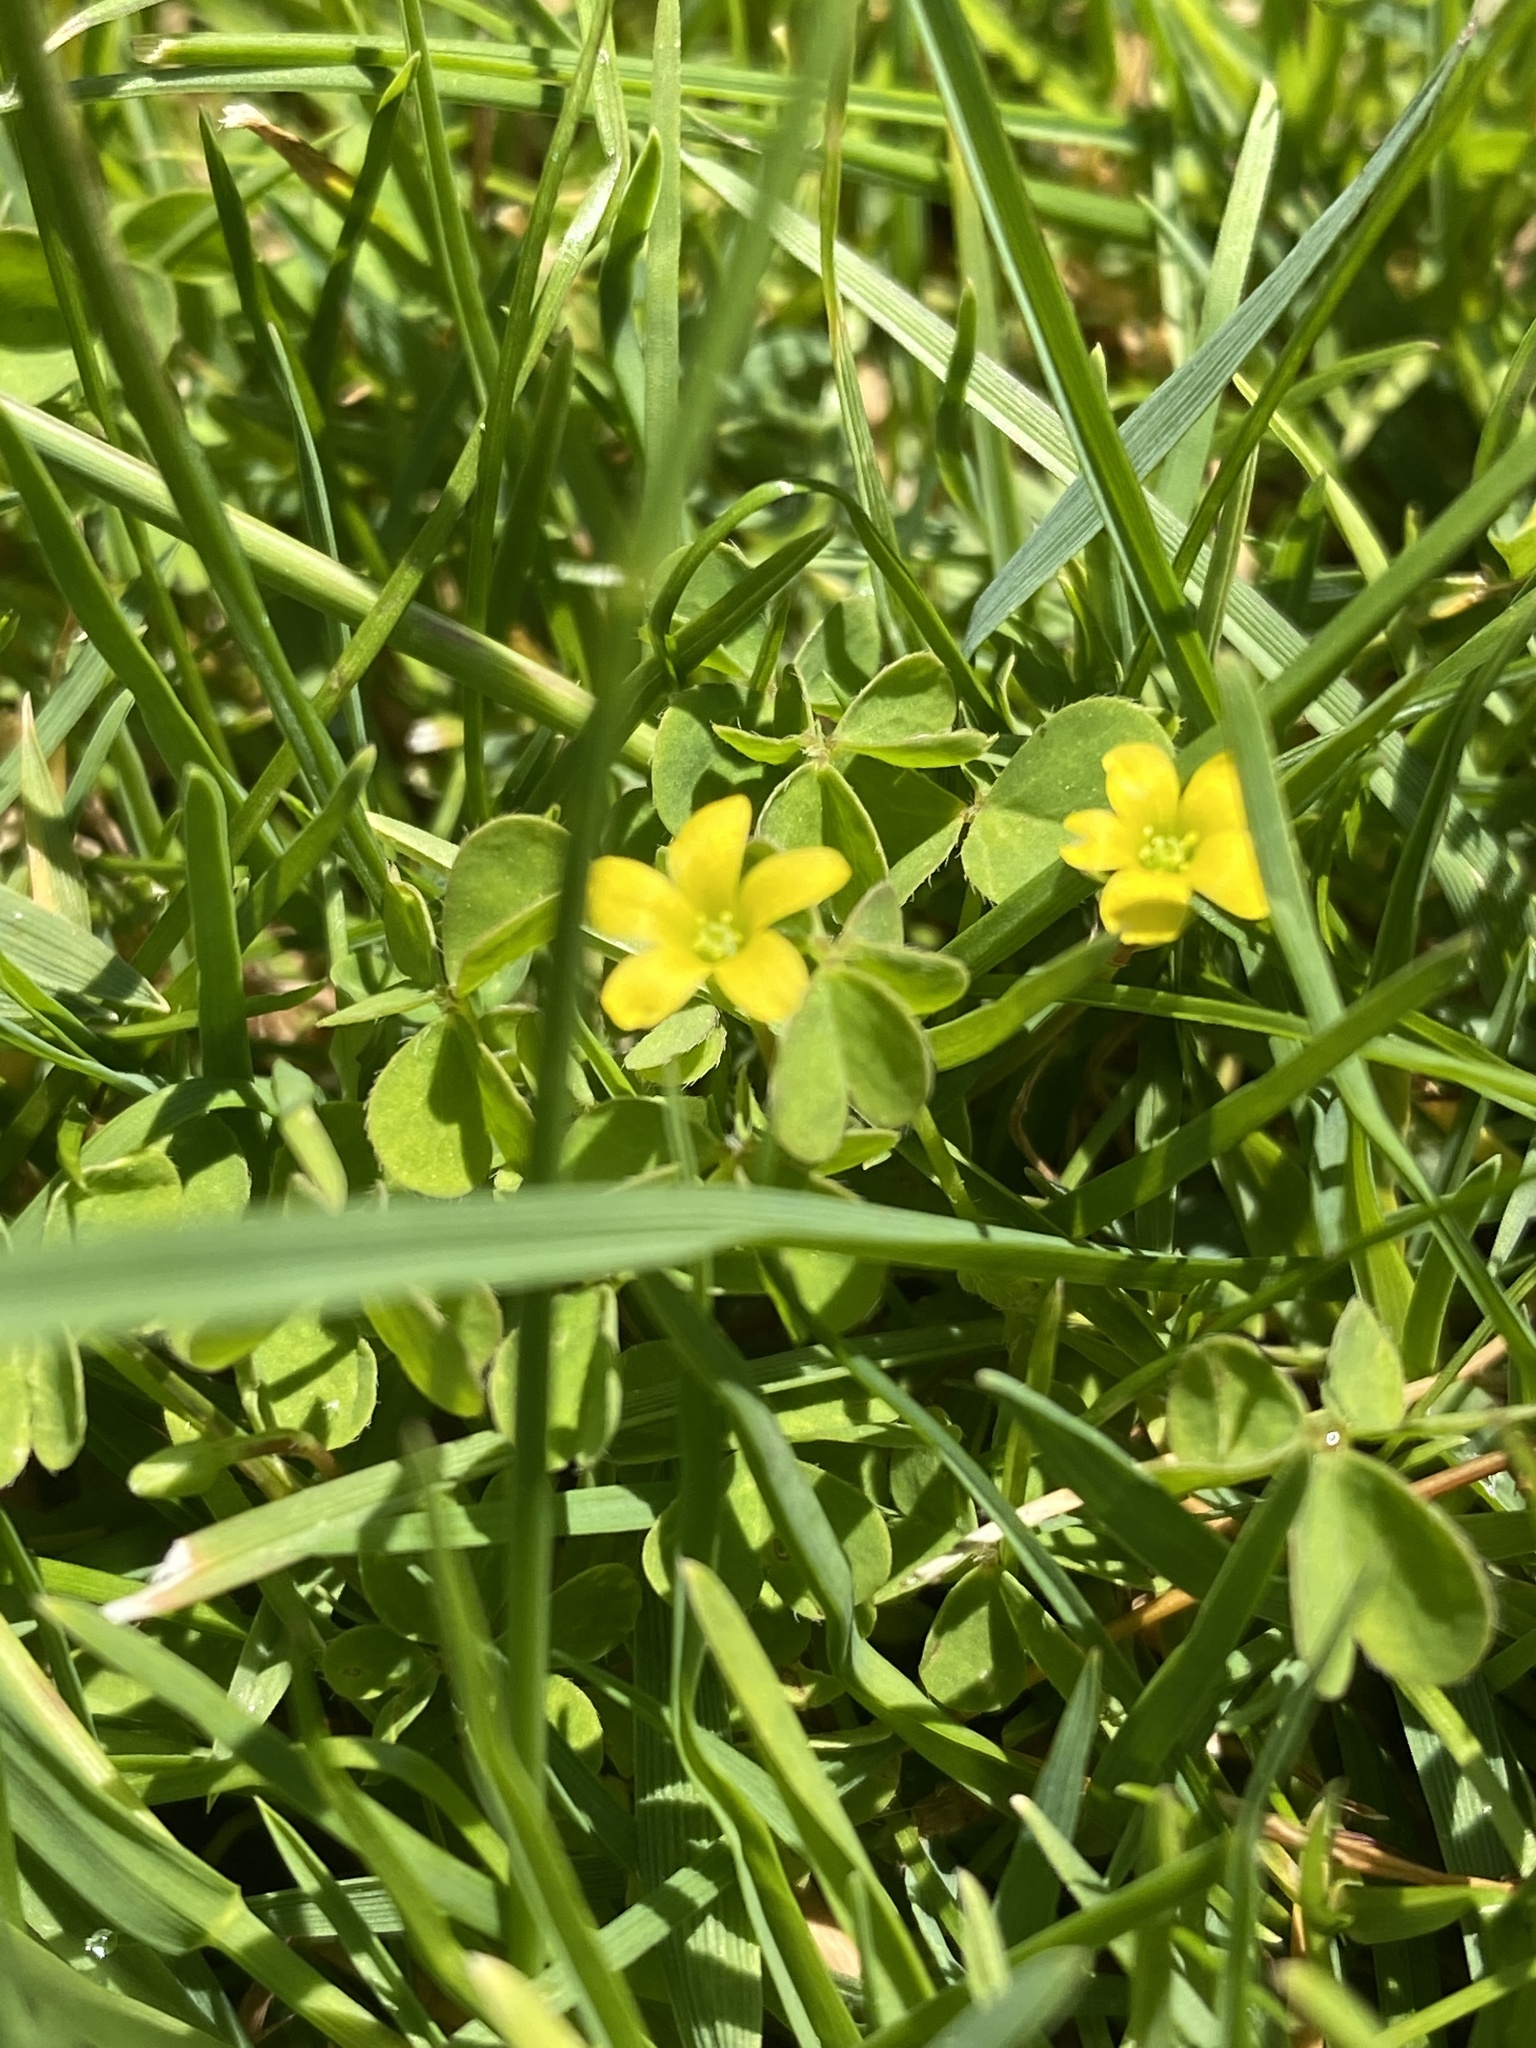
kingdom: Plantae
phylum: Tracheophyta
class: Magnoliopsida
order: Oxalidales
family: Oxalidaceae
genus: Oxalis
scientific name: Oxalis corniculata
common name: Procumbent yellow-sorrel
